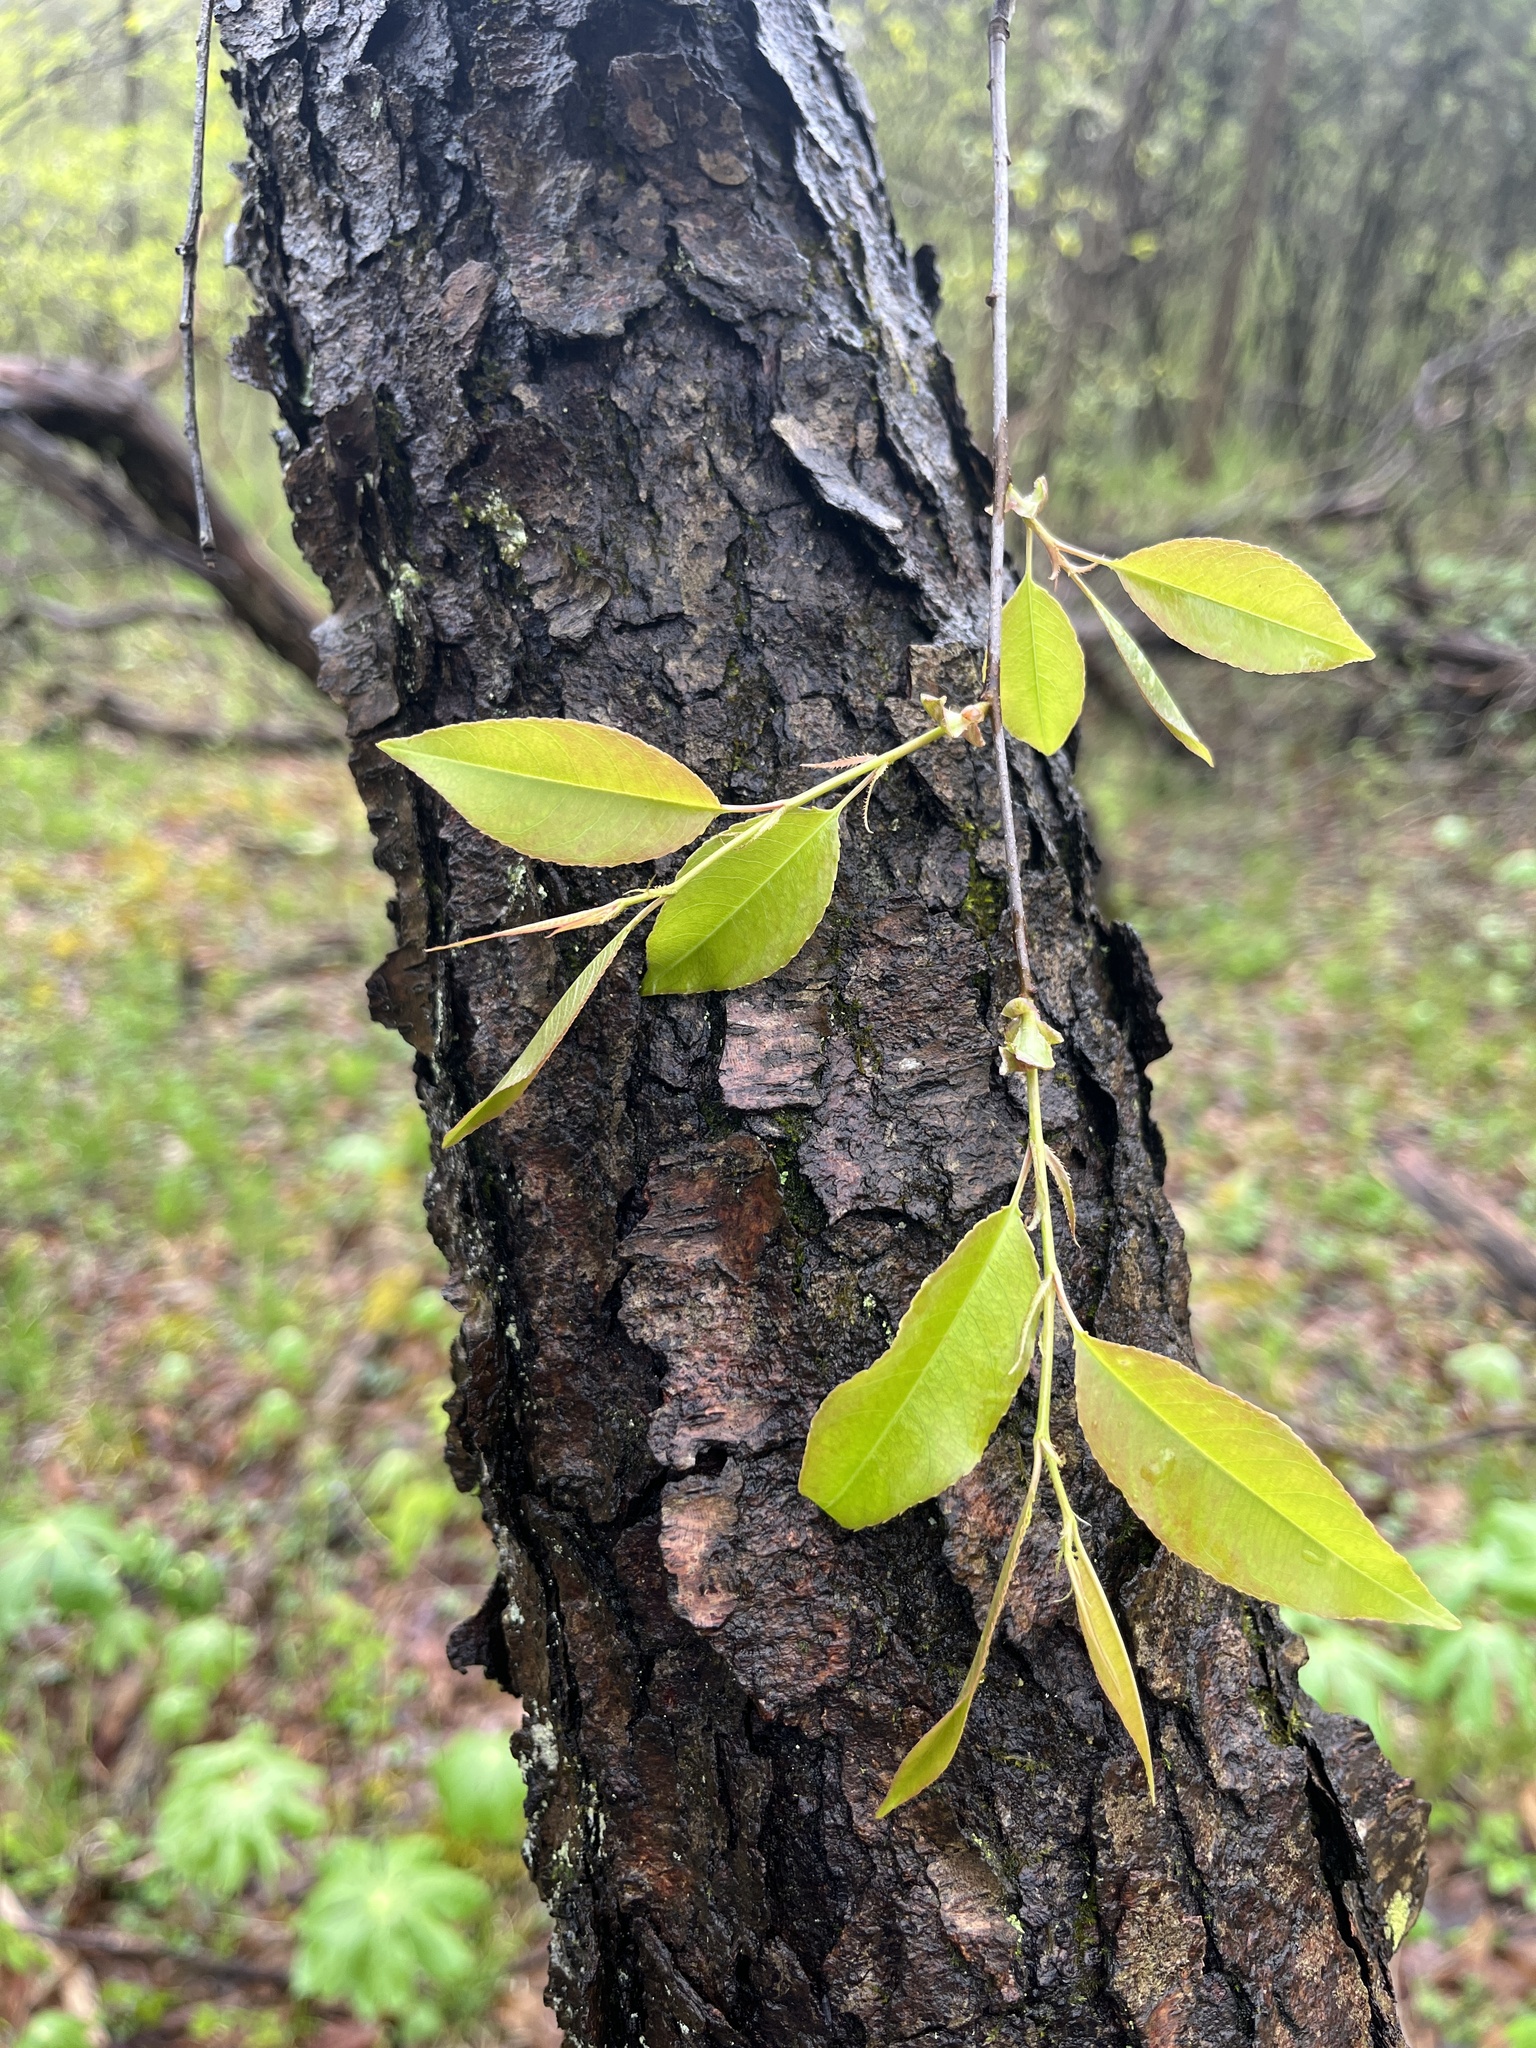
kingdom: Plantae
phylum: Tracheophyta
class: Magnoliopsida
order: Rosales
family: Rosaceae
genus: Prunus
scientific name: Prunus serotina
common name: Black cherry
